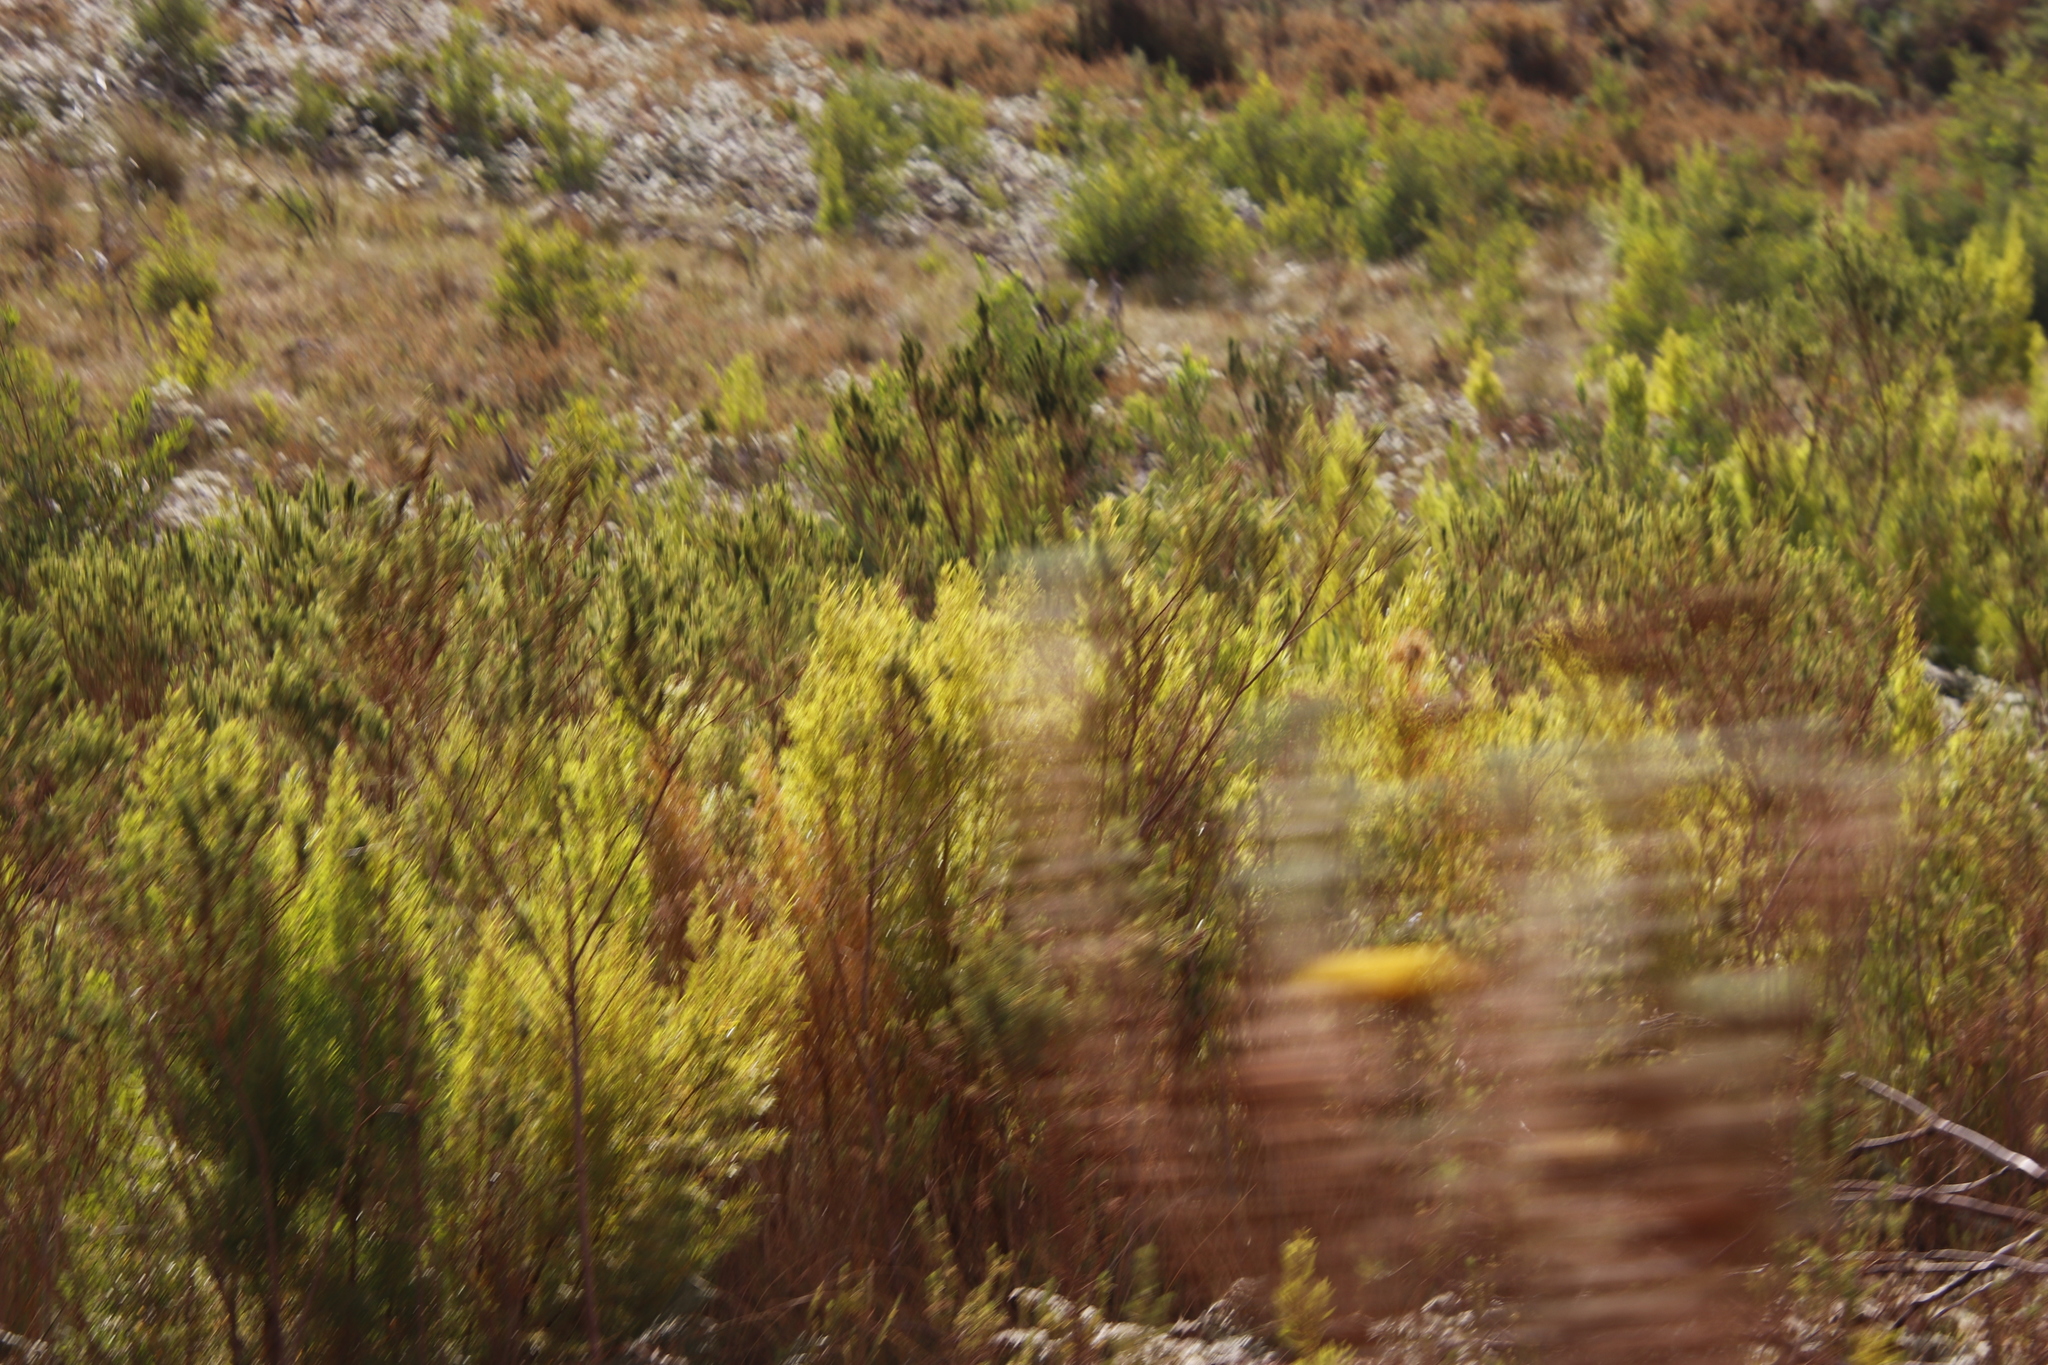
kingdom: Plantae
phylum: Tracheophyta
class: Magnoliopsida
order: Proteales
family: Proteaceae
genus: Leucadendron
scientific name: Leucadendron salicifolium
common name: Common stream conebush
